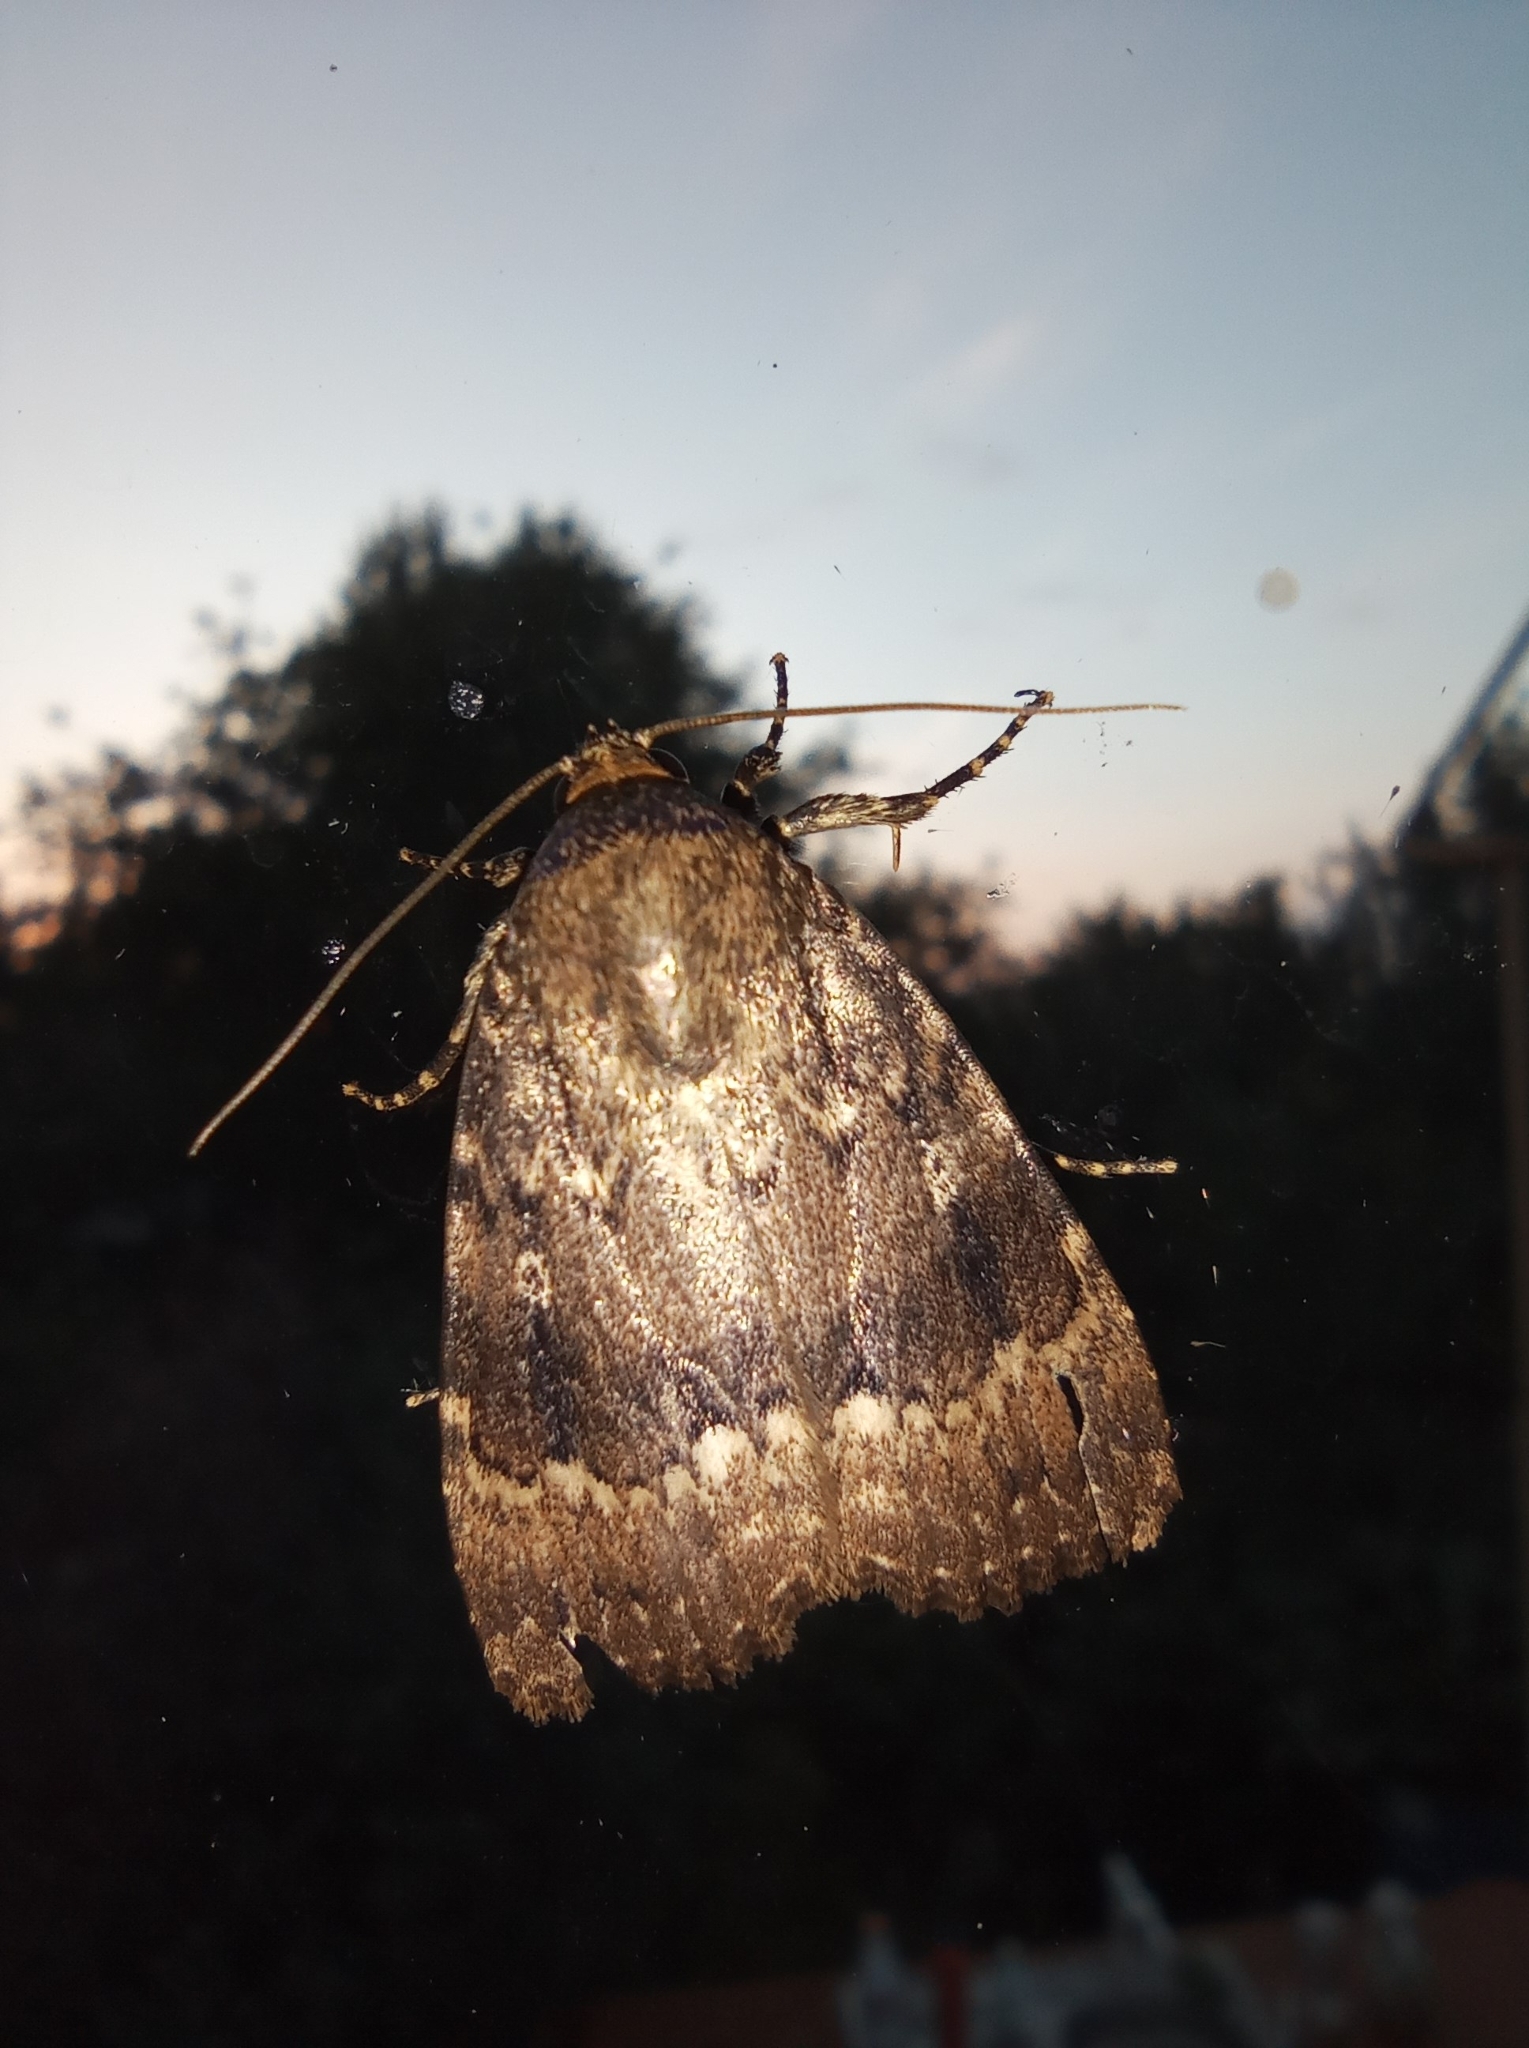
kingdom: Animalia
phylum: Arthropoda
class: Insecta
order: Lepidoptera
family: Noctuidae
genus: Amphipyra
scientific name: Amphipyra pyramidea
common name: Copper underwing
